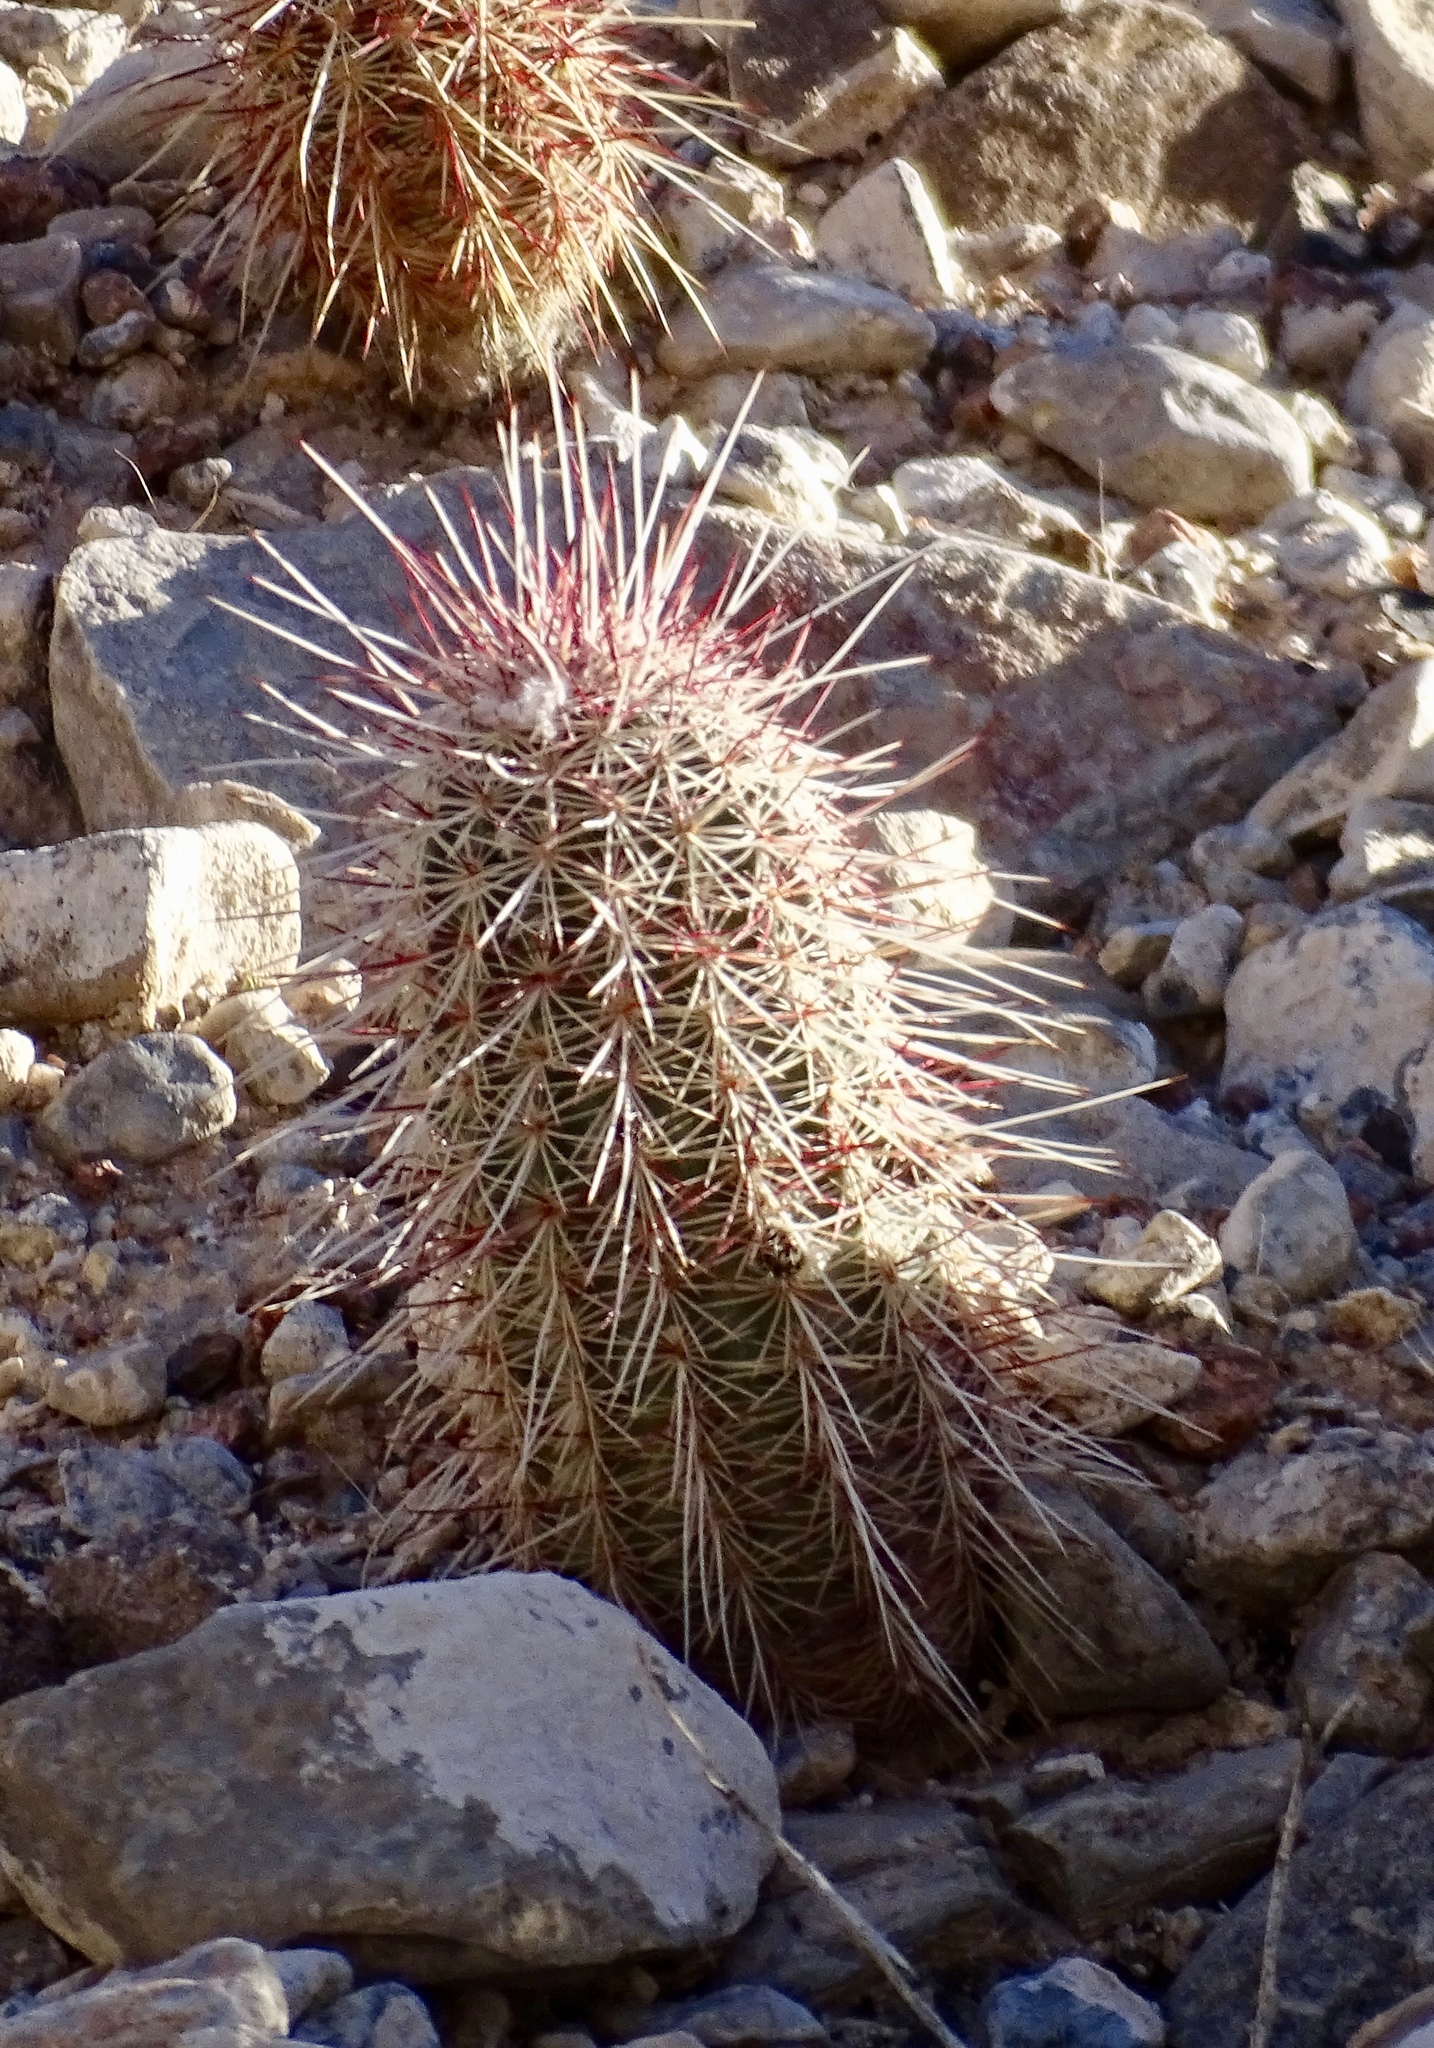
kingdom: Plantae
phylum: Tracheophyta
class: Magnoliopsida
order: Caryophyllales
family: Cactaceae
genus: Echinocereus
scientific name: Echinocereus viridiflorus
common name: Nylon hedgehog cactus
